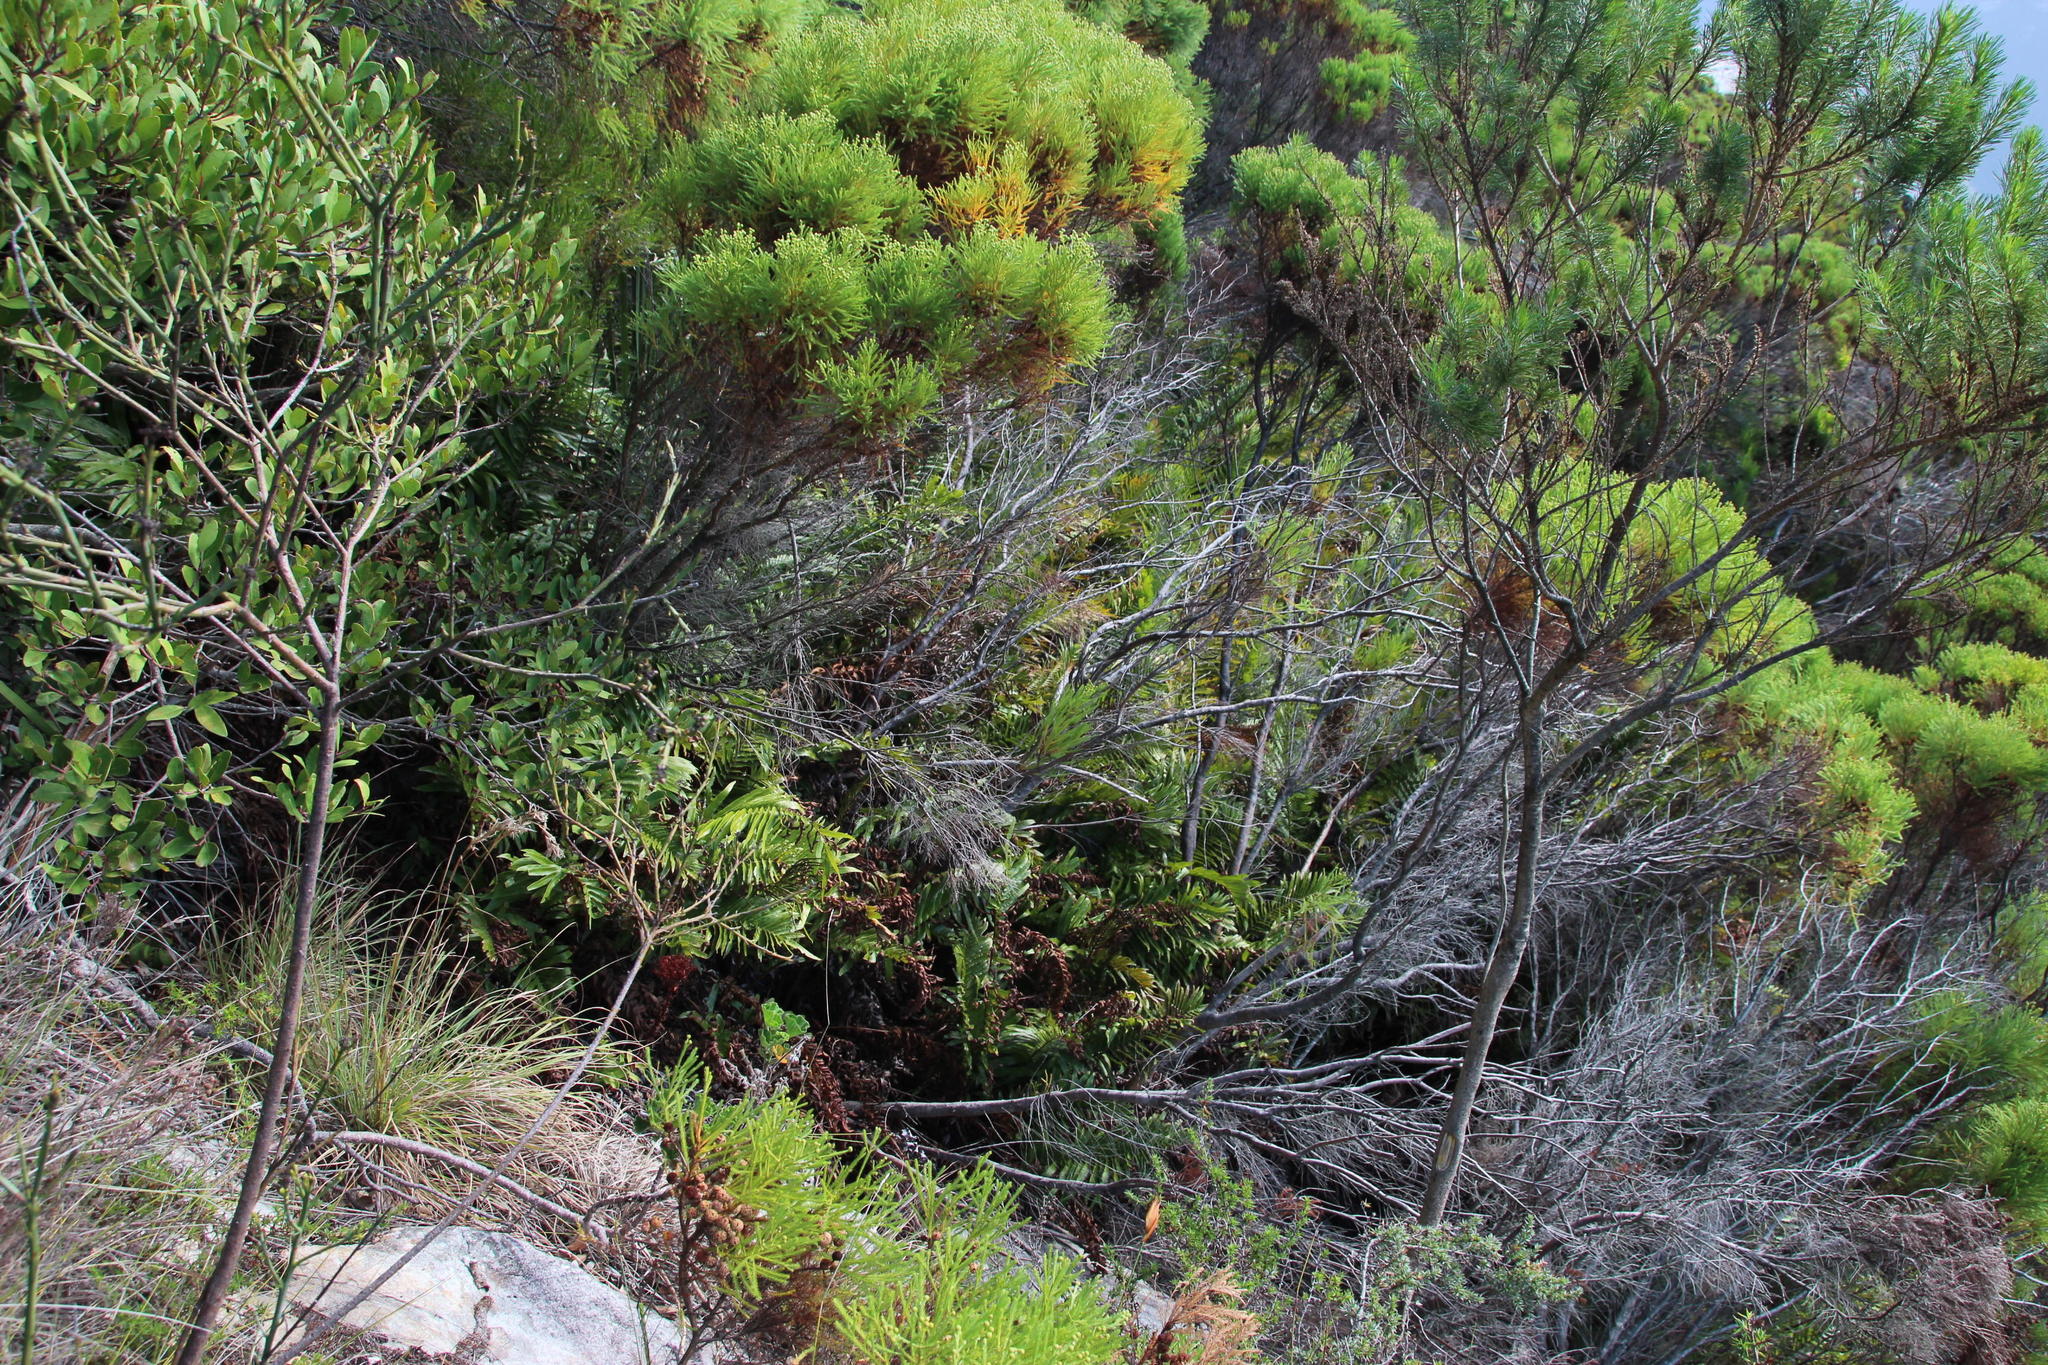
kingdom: Plantae
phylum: Tracheophyta
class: Polypodiopsida
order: Polypodiales
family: Blechnaceae
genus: Lomariocycas
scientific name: Lomariocycas tabularis
